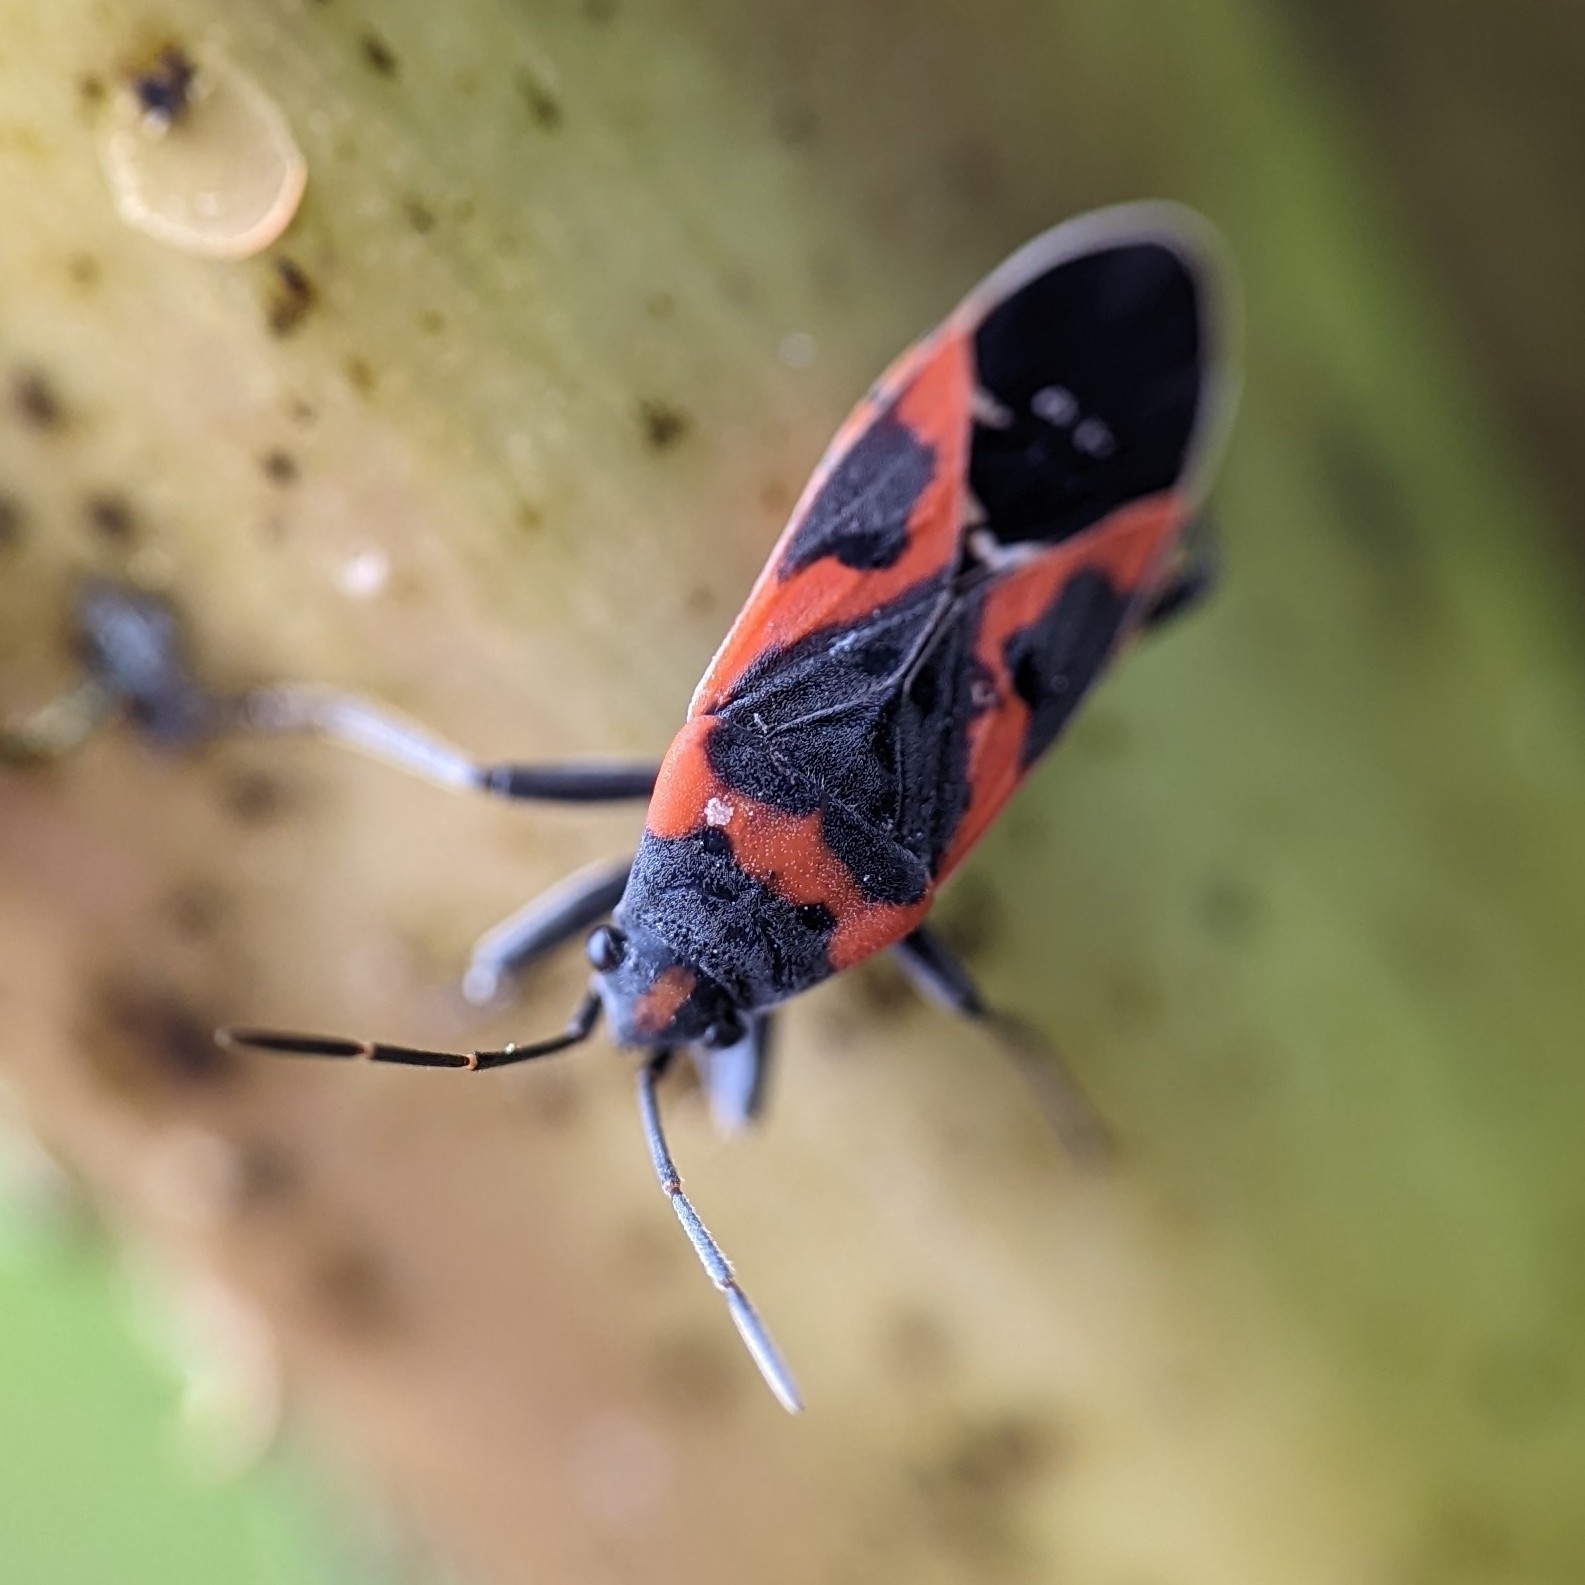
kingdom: Animalia
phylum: Arthropoda
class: Insecta
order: Hemiptera
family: Lygaeidae
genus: Lygaeus
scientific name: Lygaeus kalmii
